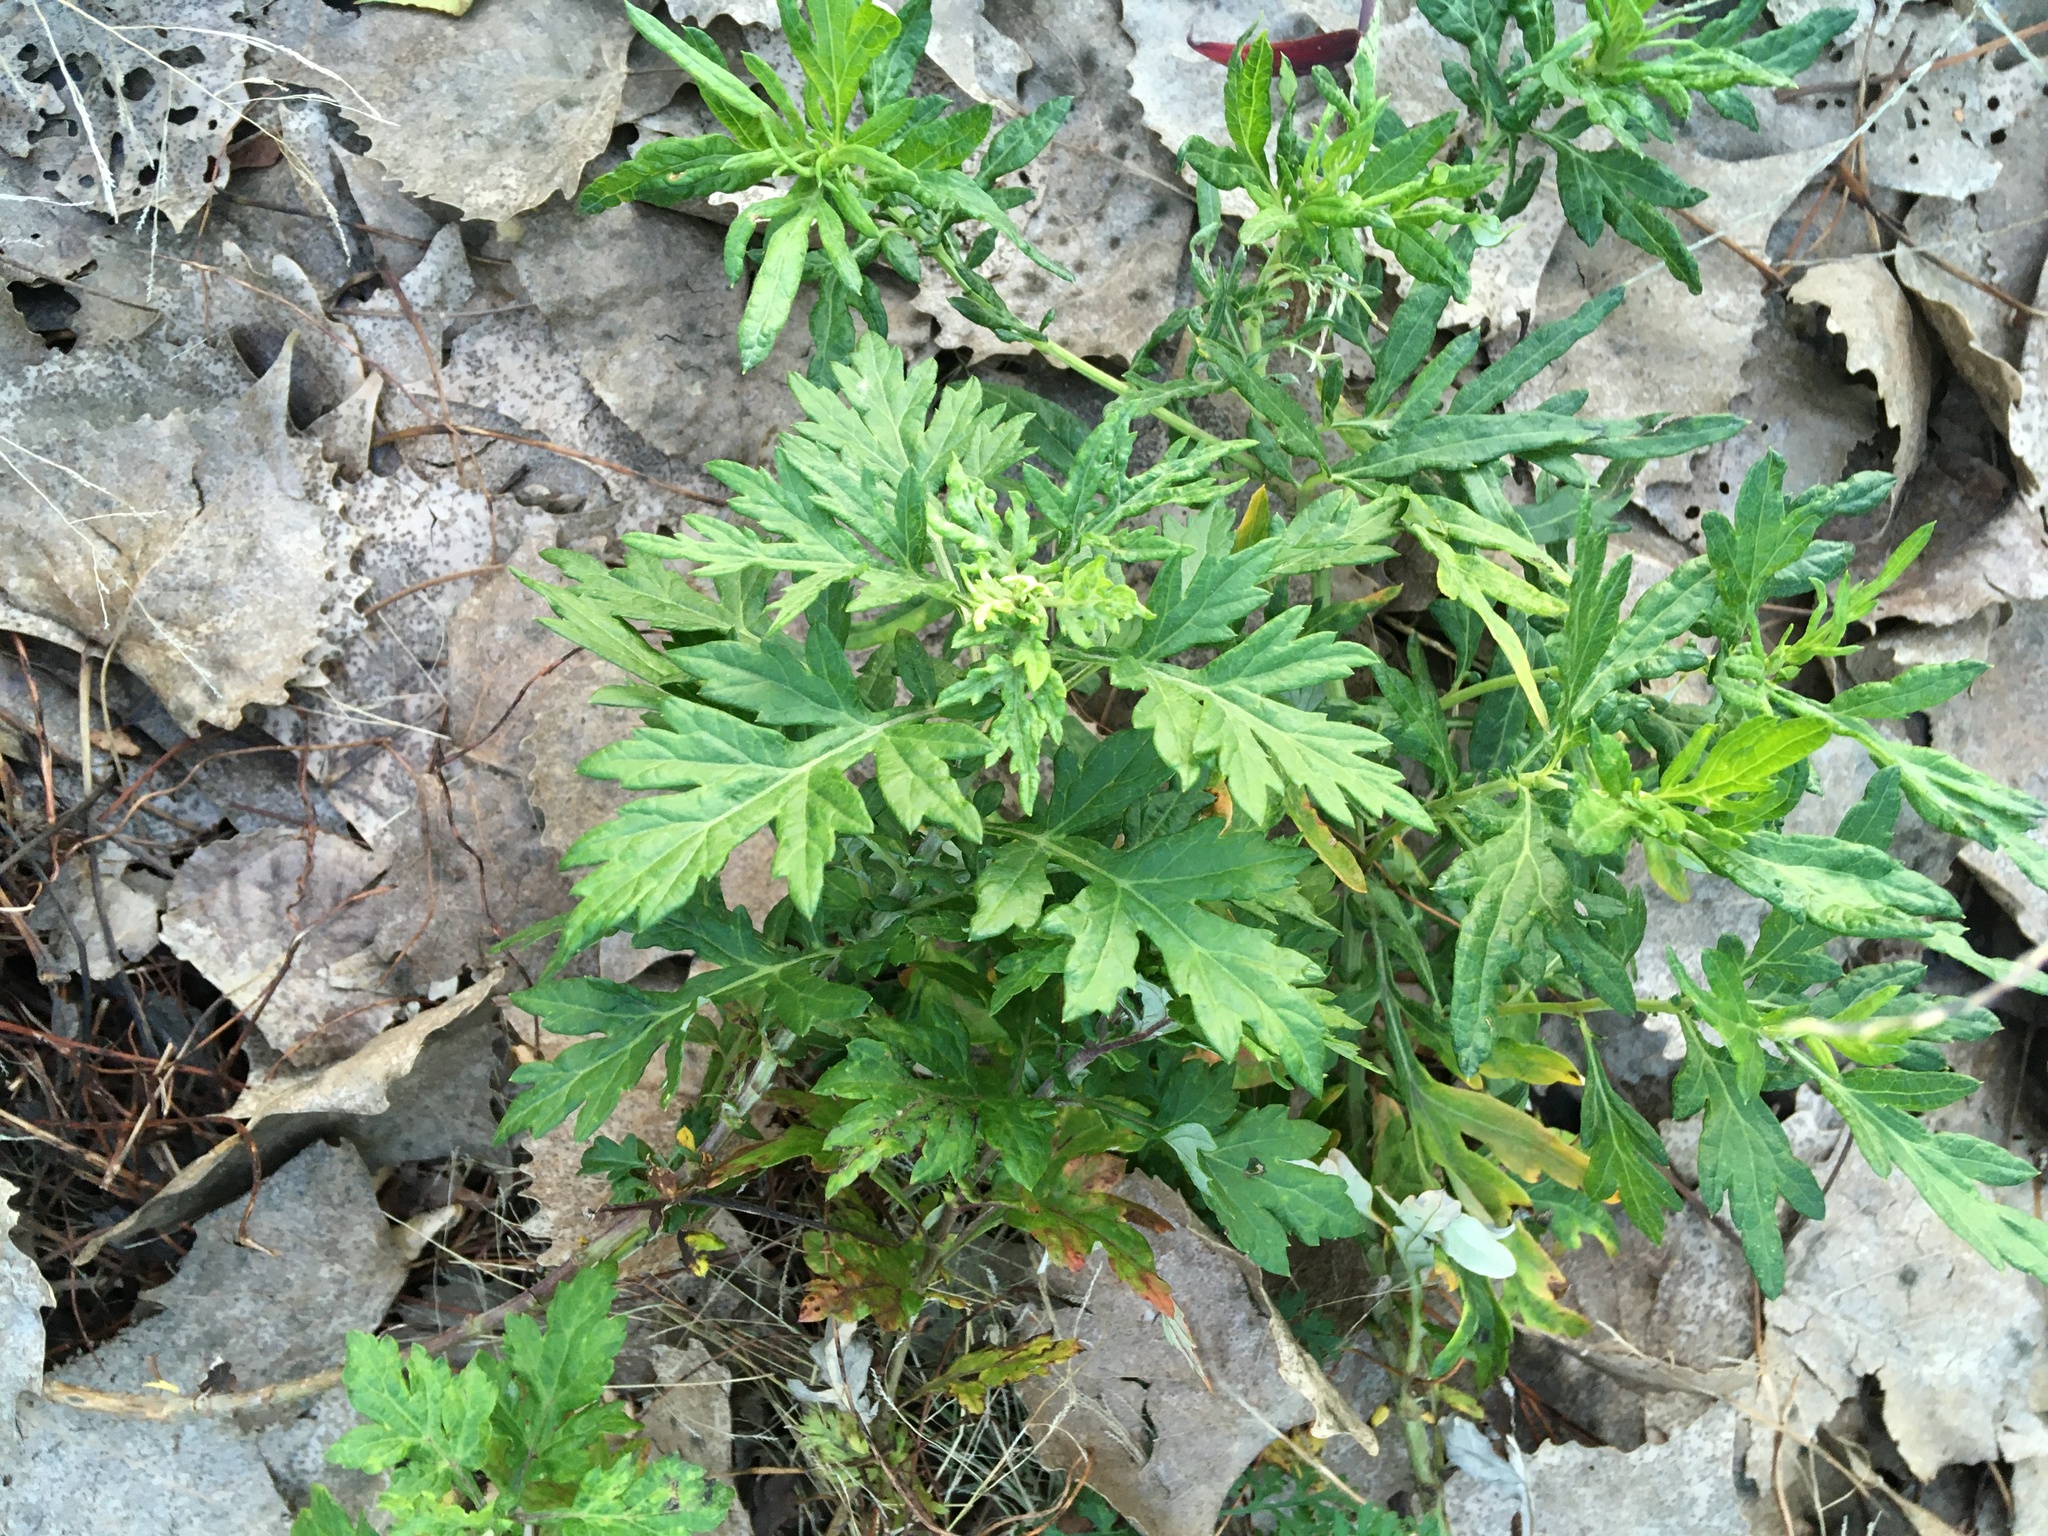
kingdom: Plantae
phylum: Tracheophyta
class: Magnoliopsida
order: Asterales
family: Asteraceae
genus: Artemisia
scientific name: Artemisia vulgaris
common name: Mugwort
